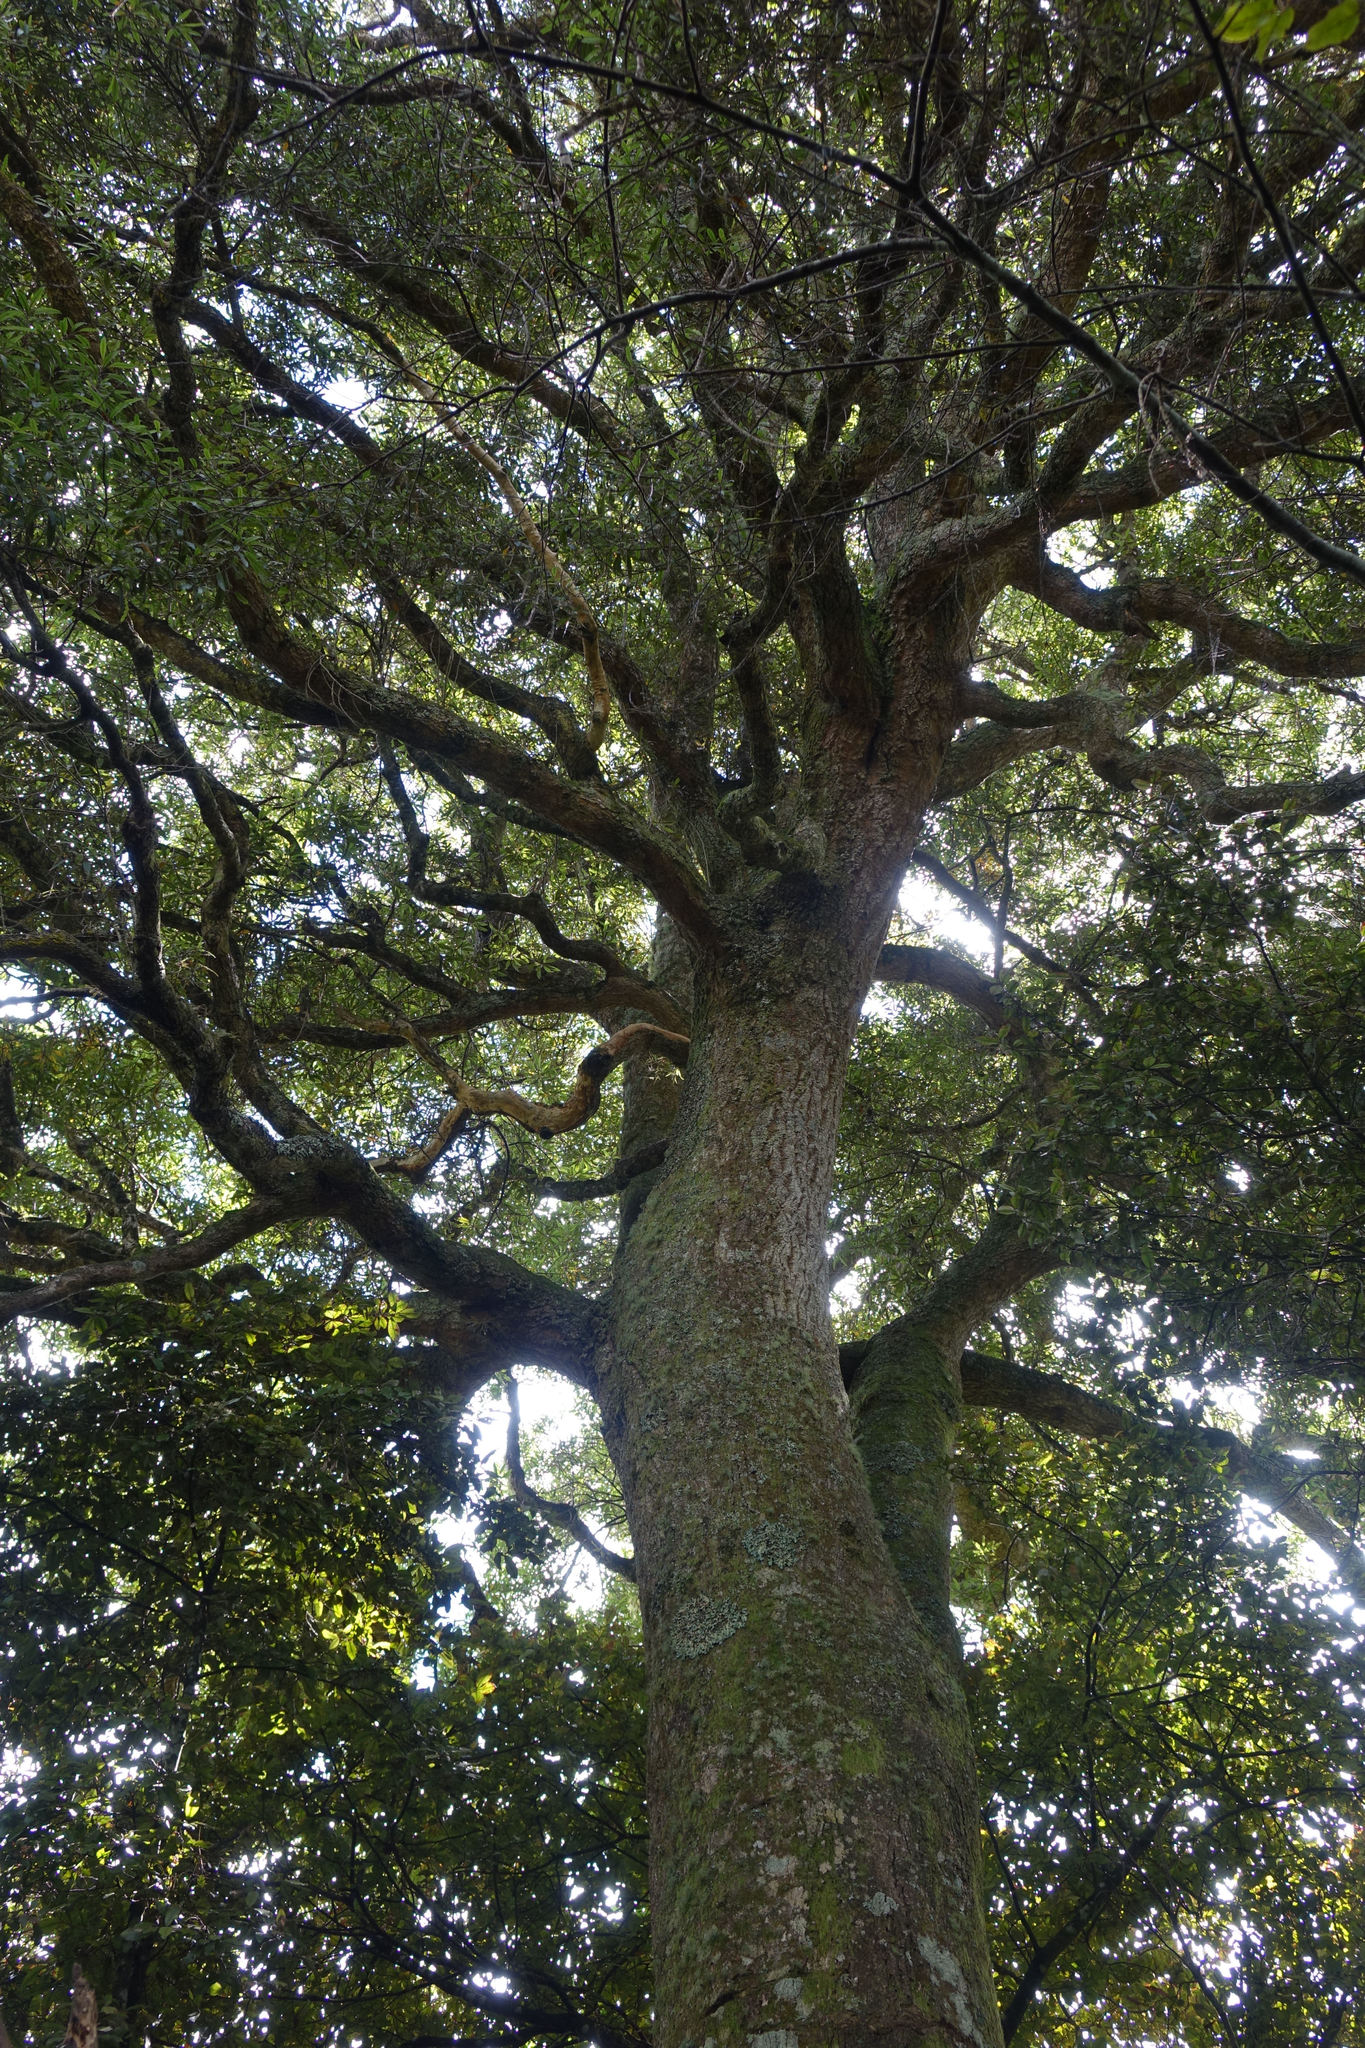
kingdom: Plantae
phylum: Tracheophyta
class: Magnoliopsida
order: Oxalidales
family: Elaeocarpaceae
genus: Elaeocarpus
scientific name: Elaeocarpus hookerianus
